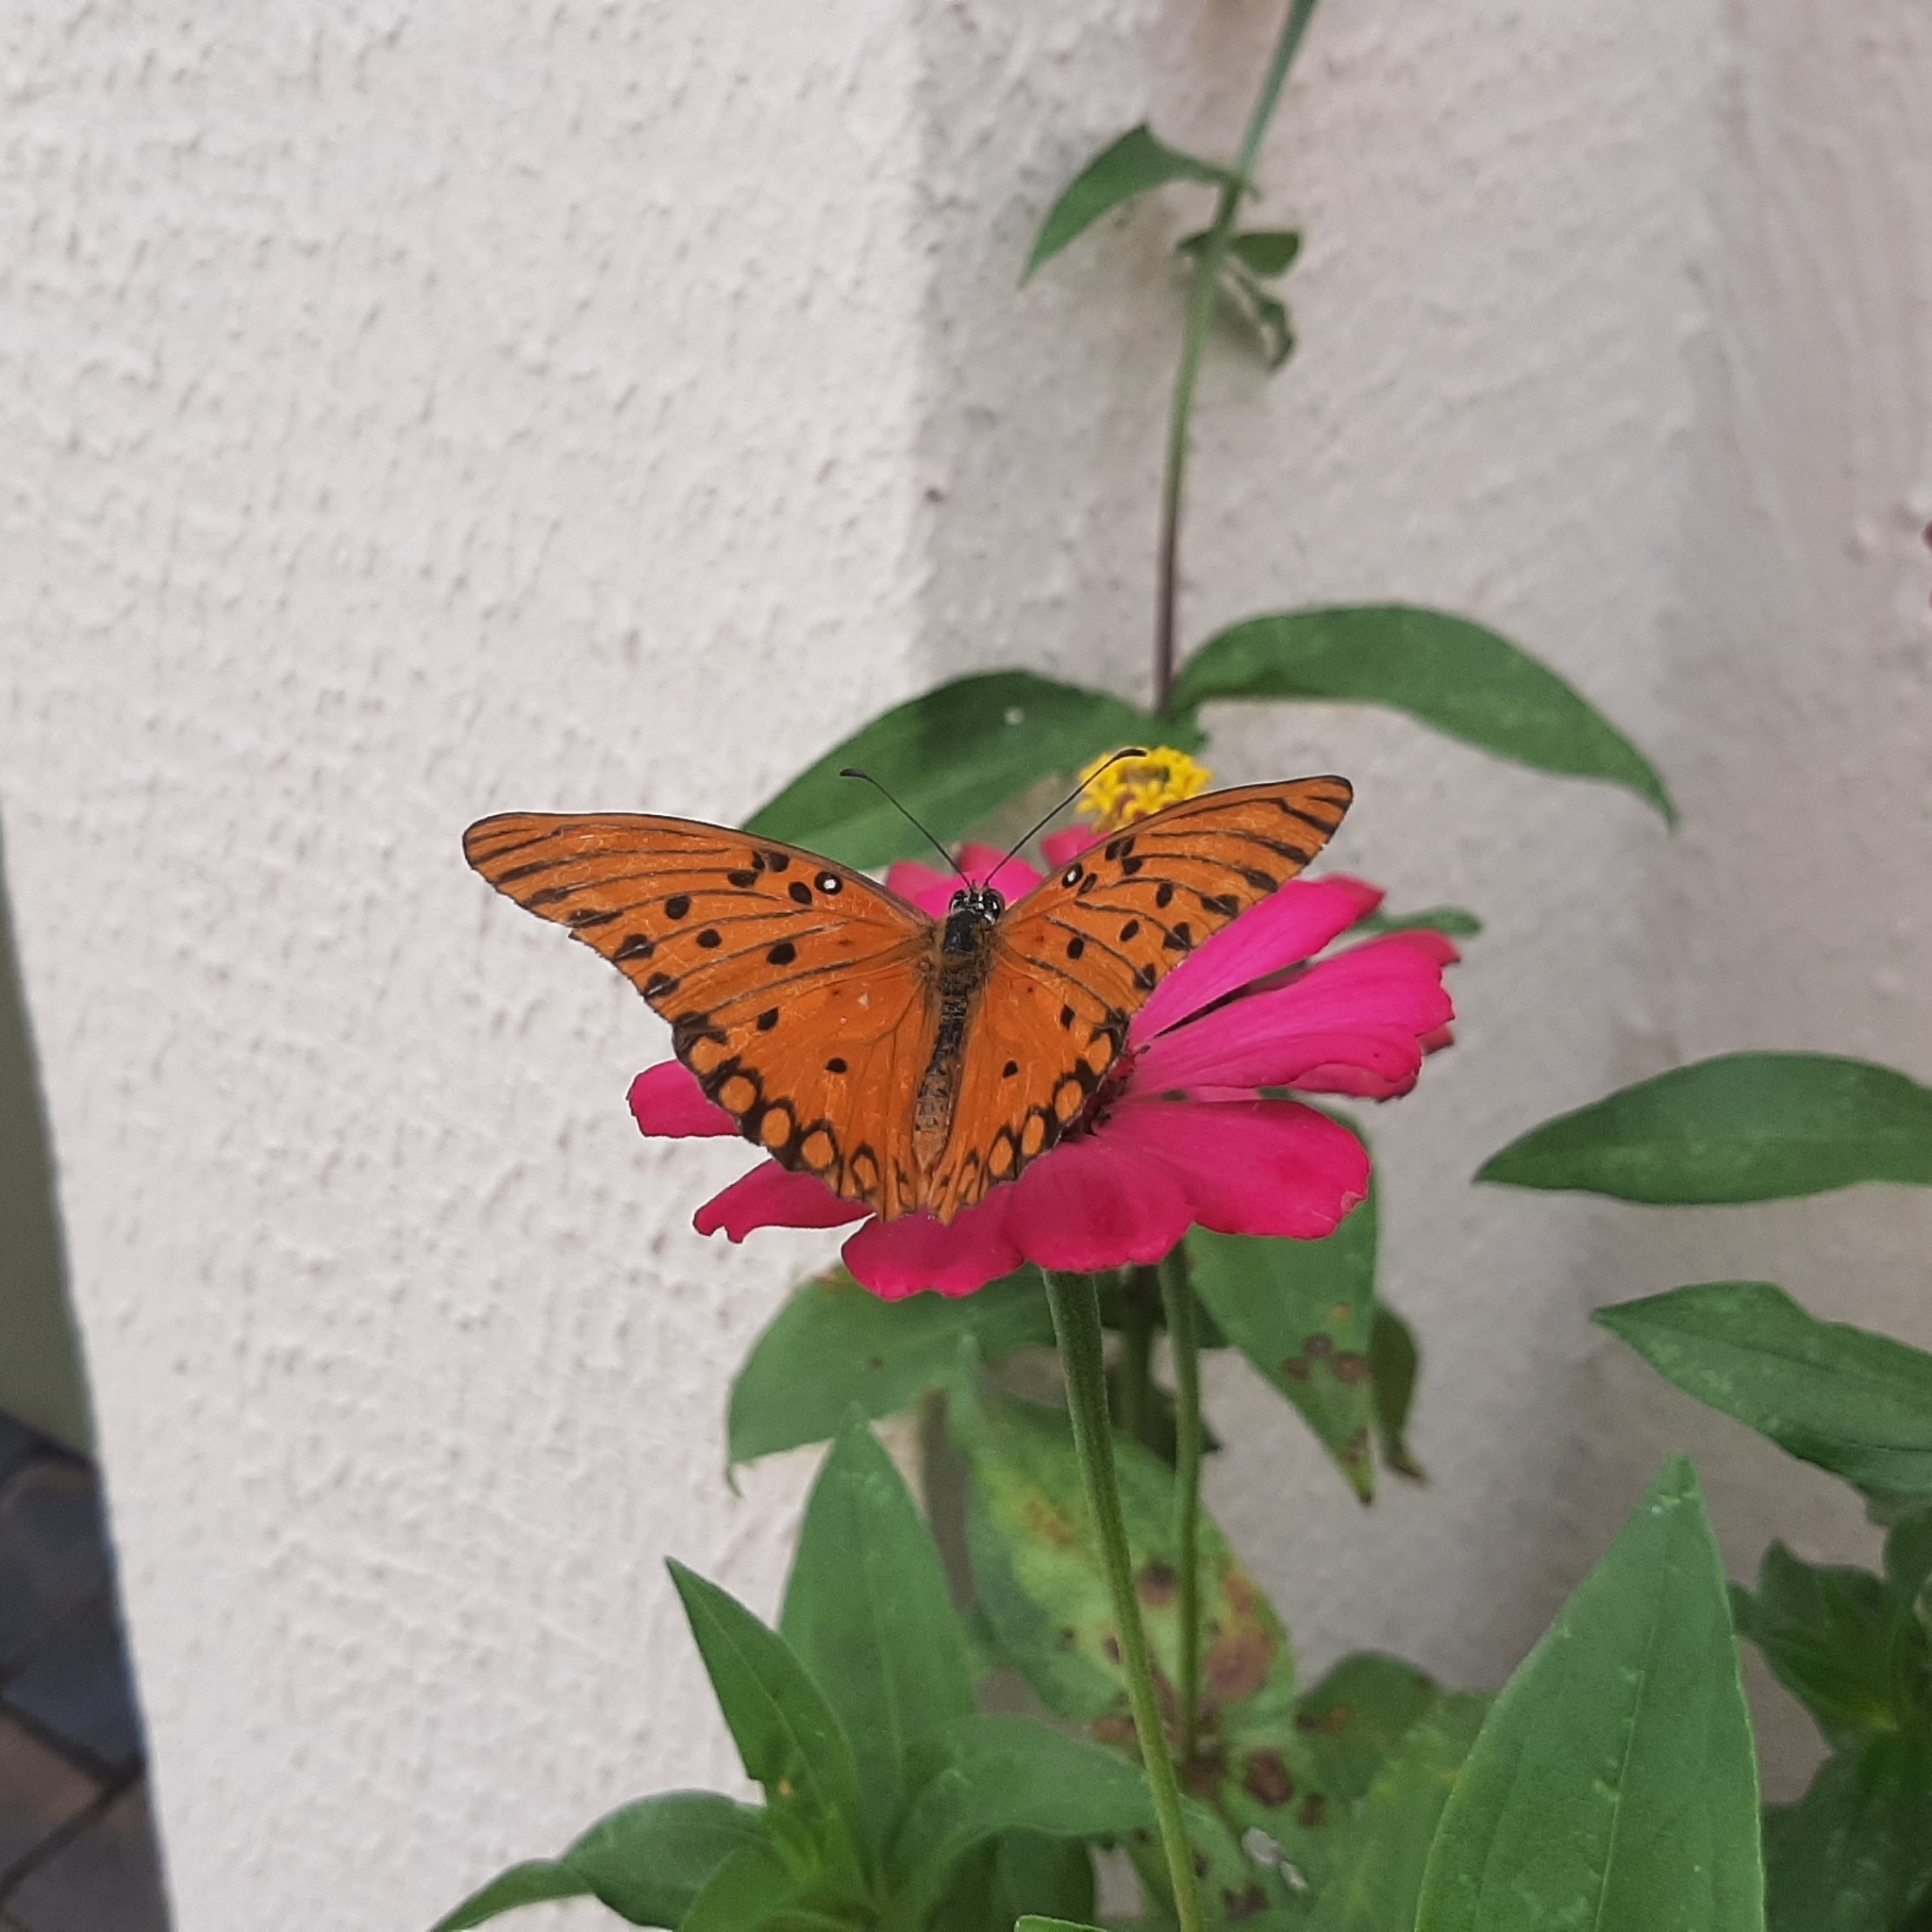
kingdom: Animalia
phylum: Arthropoda
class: Insecta
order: Lepidoptera
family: Nymphalidae
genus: Dione
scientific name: Dione vanillae
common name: Gulf fritillary
